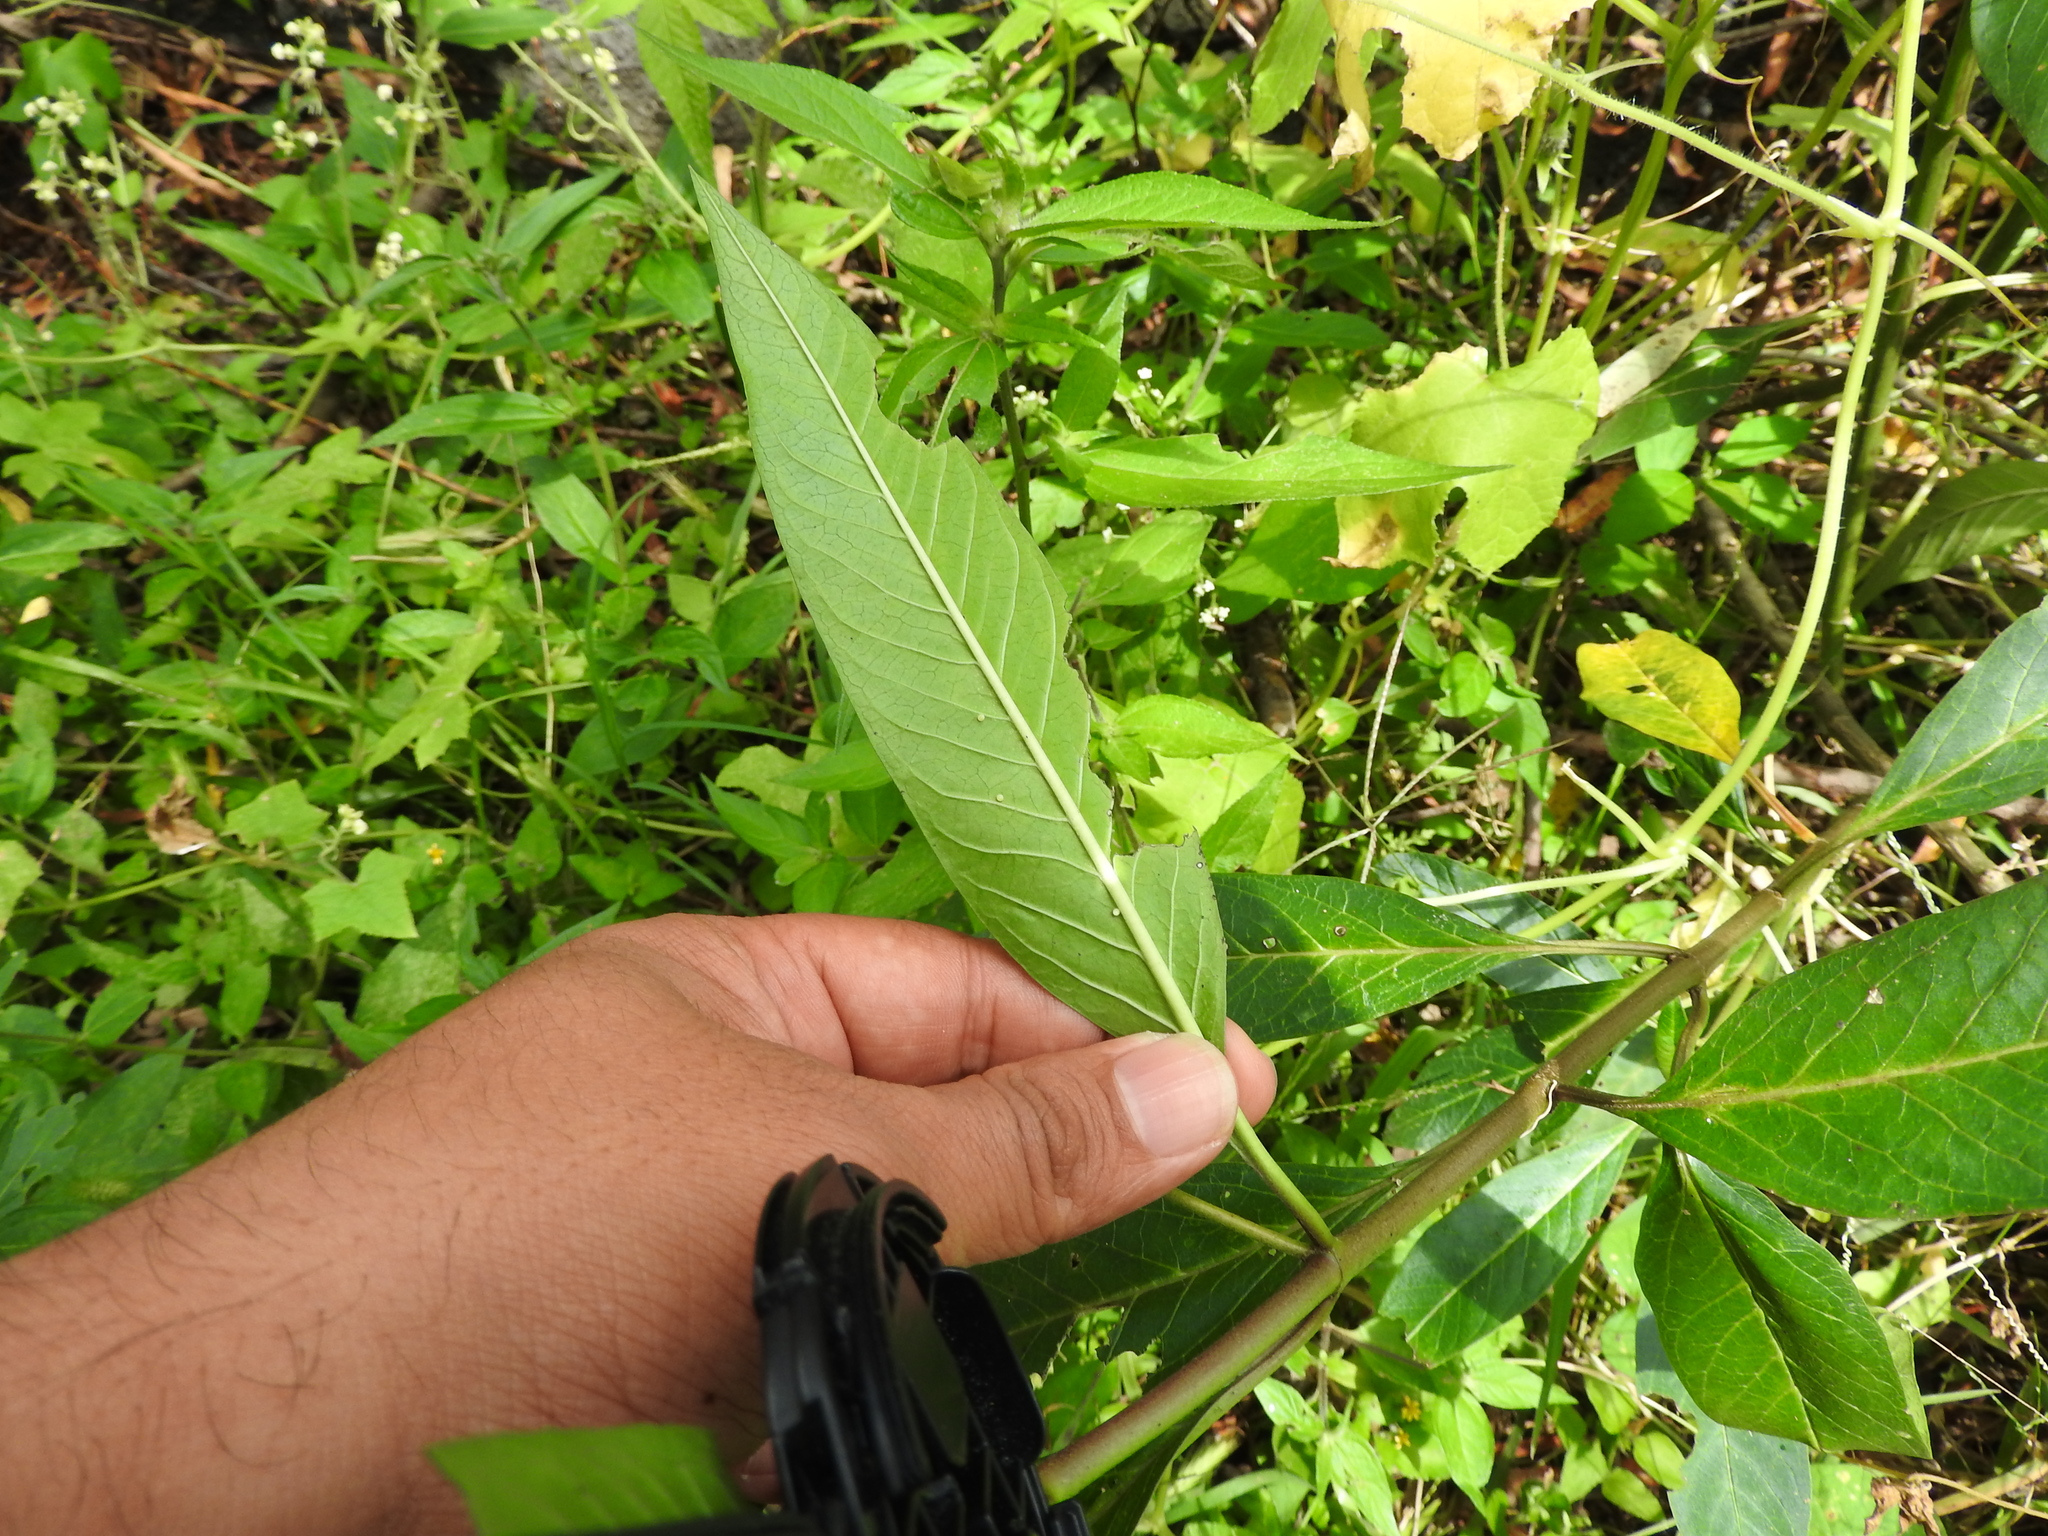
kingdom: Animalia
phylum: Arthropoda
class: Insecta
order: Lepidoptera
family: Nymphalidae
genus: Danaus
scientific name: Danaus plexippus
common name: Monarch
